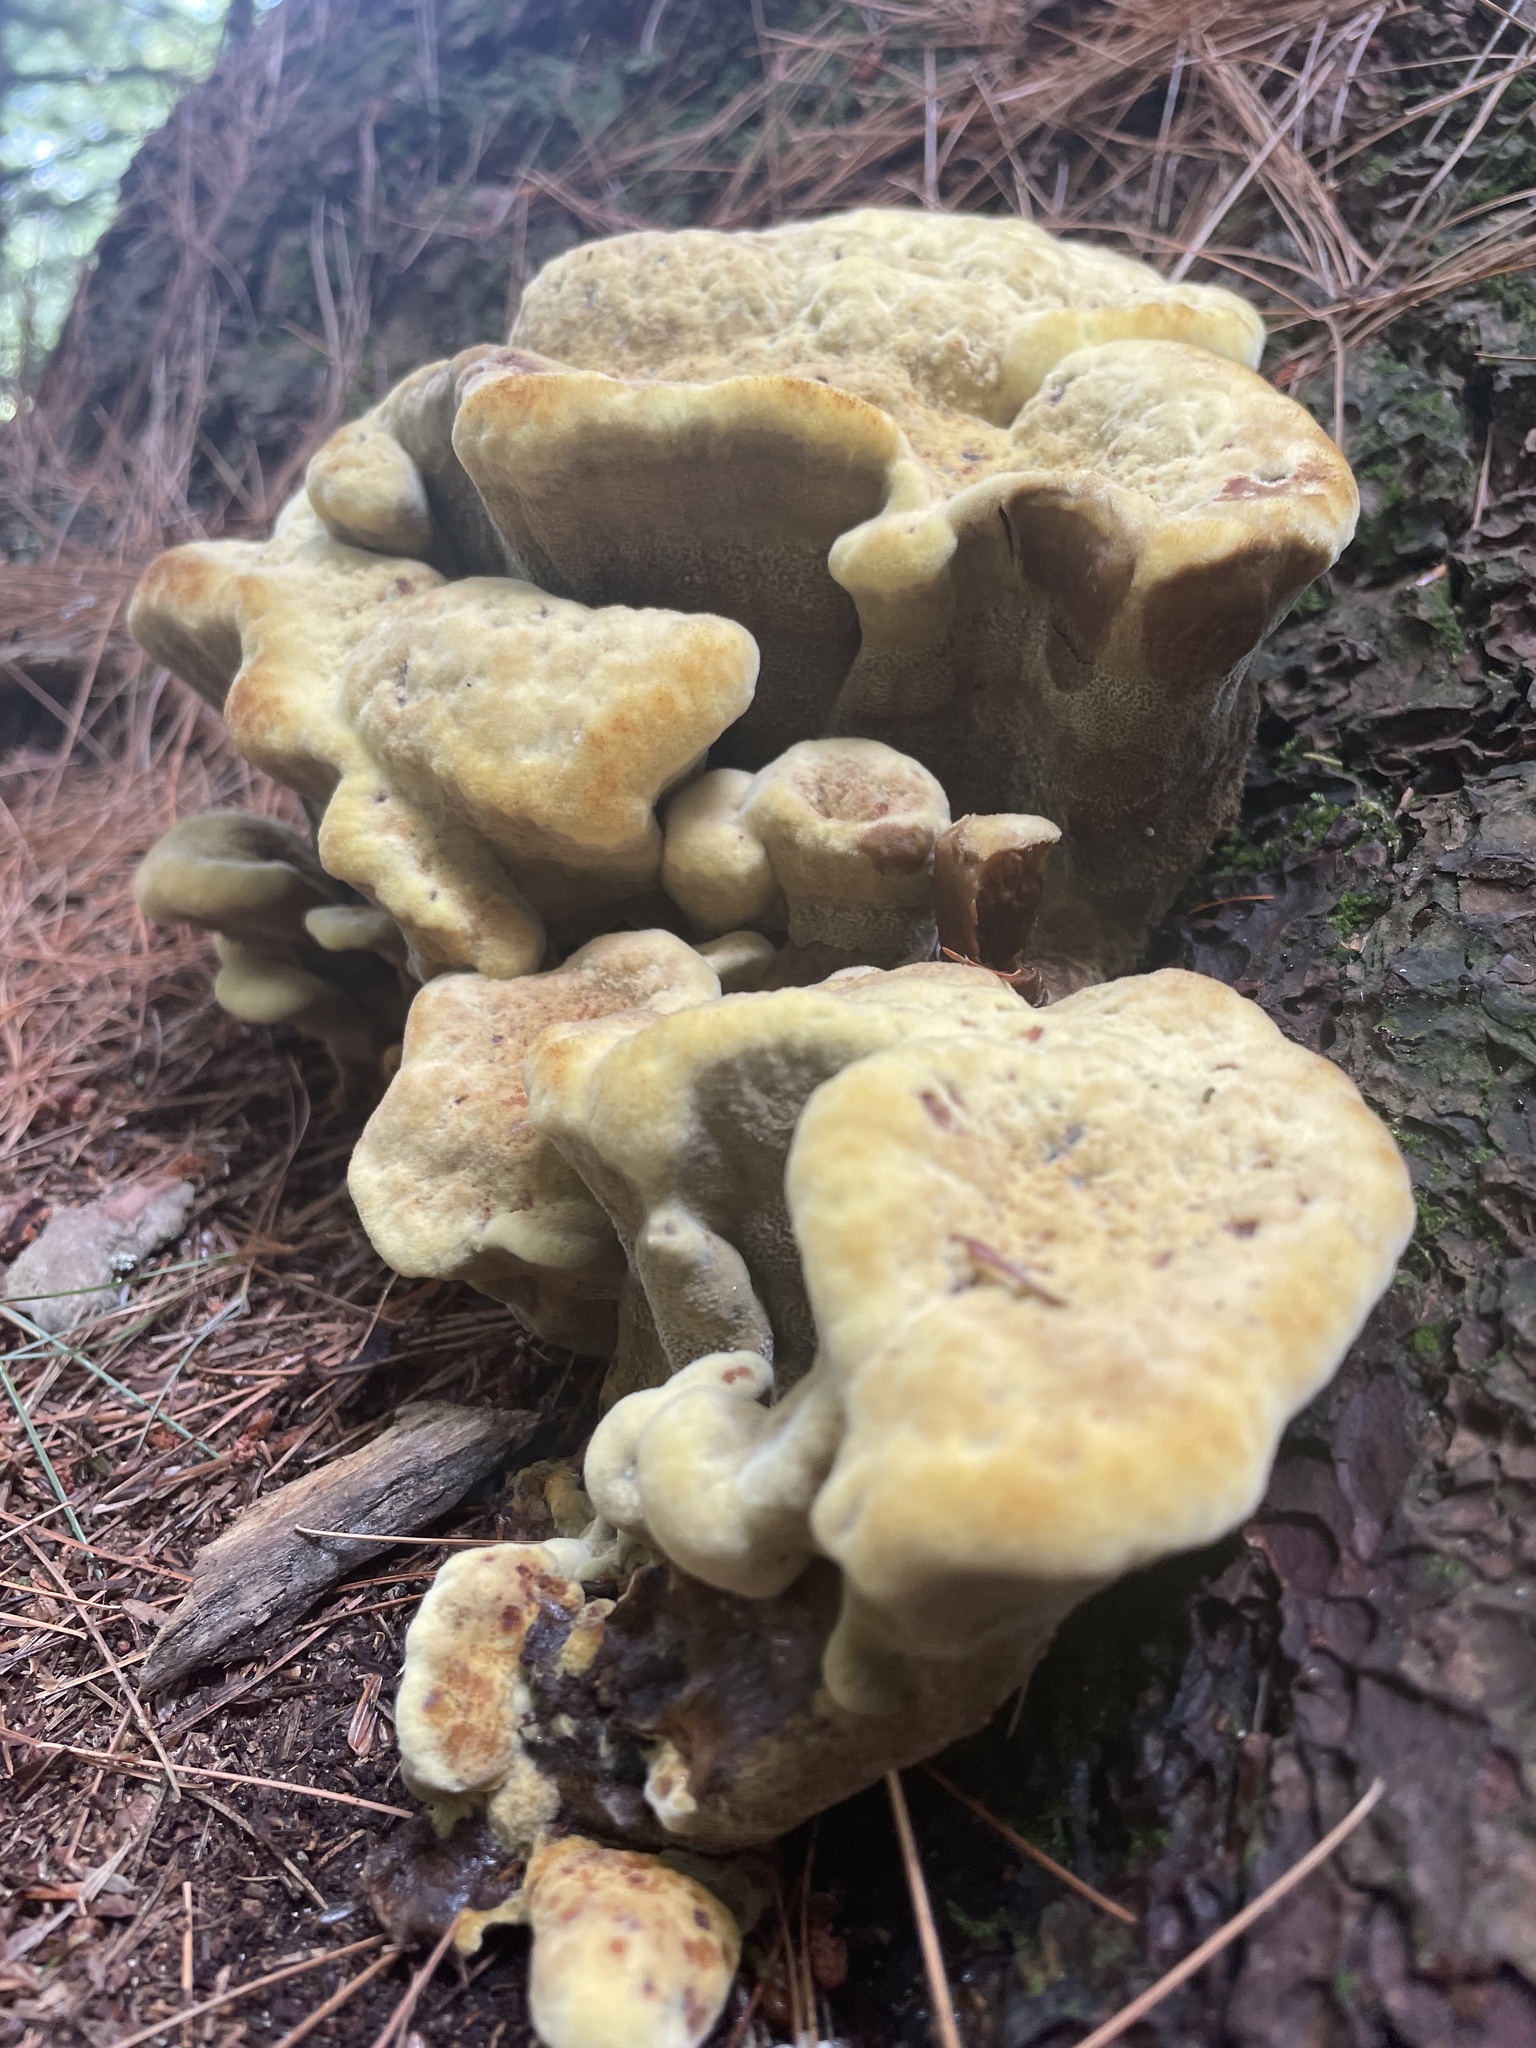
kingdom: Fungi
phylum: Basidiomycota
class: Agaricomycetes
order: Polyporales
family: Laetiporaceae
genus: Phaeolus
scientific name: Phaeolus schweinitzii
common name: Dyer's mazegill
